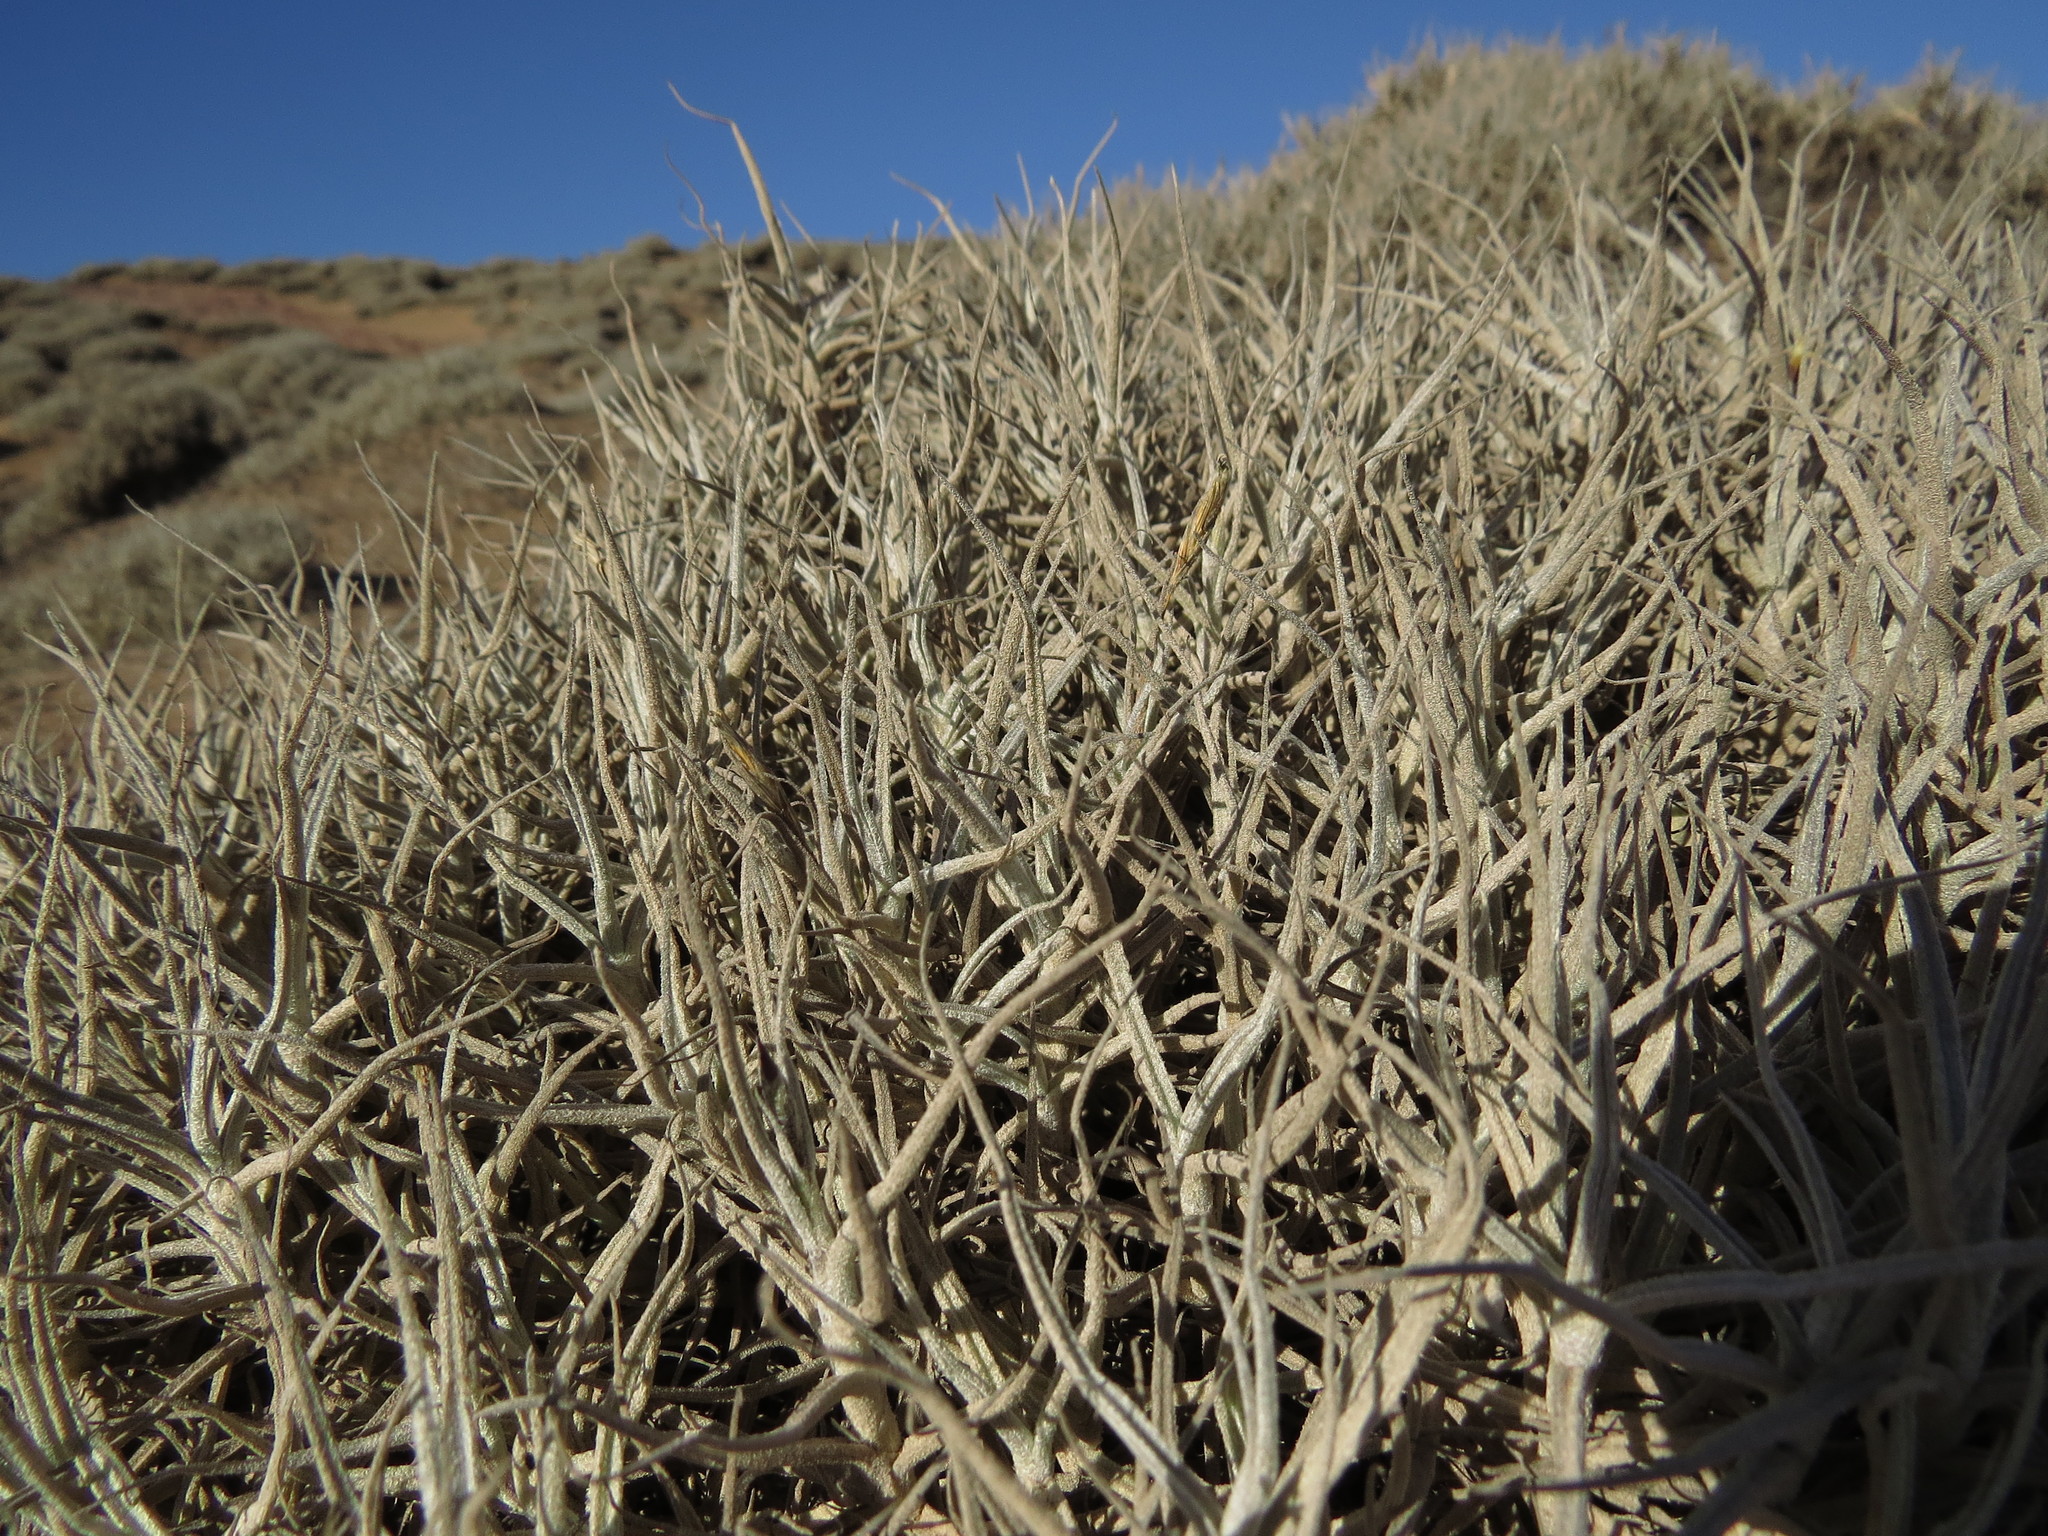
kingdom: Plantae
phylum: Tracheophyta
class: Liliopsida
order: Poales
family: Bromeliaceae
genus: Tillandsia
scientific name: Tillandsia landbeckii
